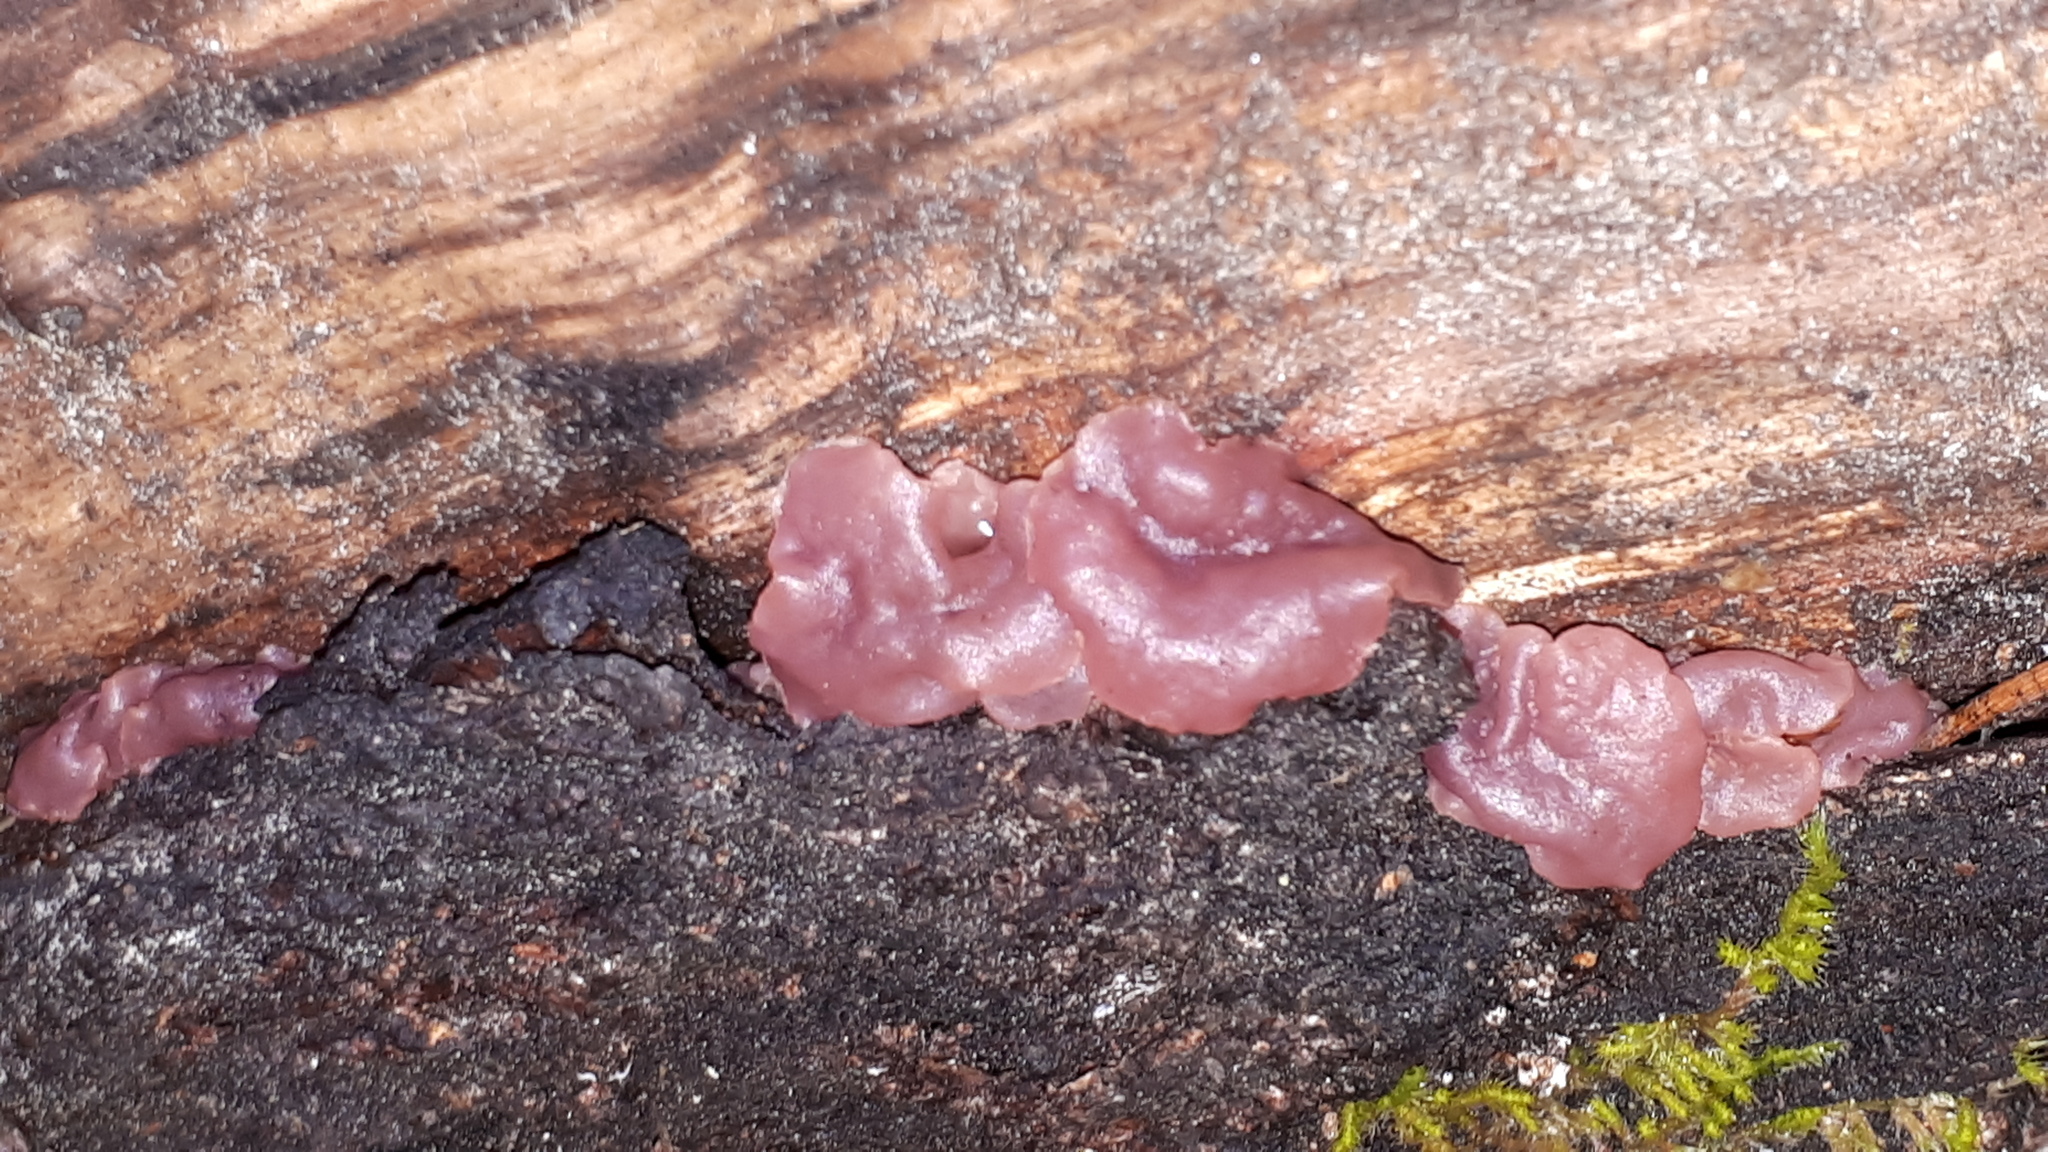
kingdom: Fungi
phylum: Ascomycota
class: Leotiomycetes
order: Helotiales
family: Gelatinodiscaceae
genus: Ascocoryne
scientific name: Ascocoryne sarcoides
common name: Purple jellydisc
